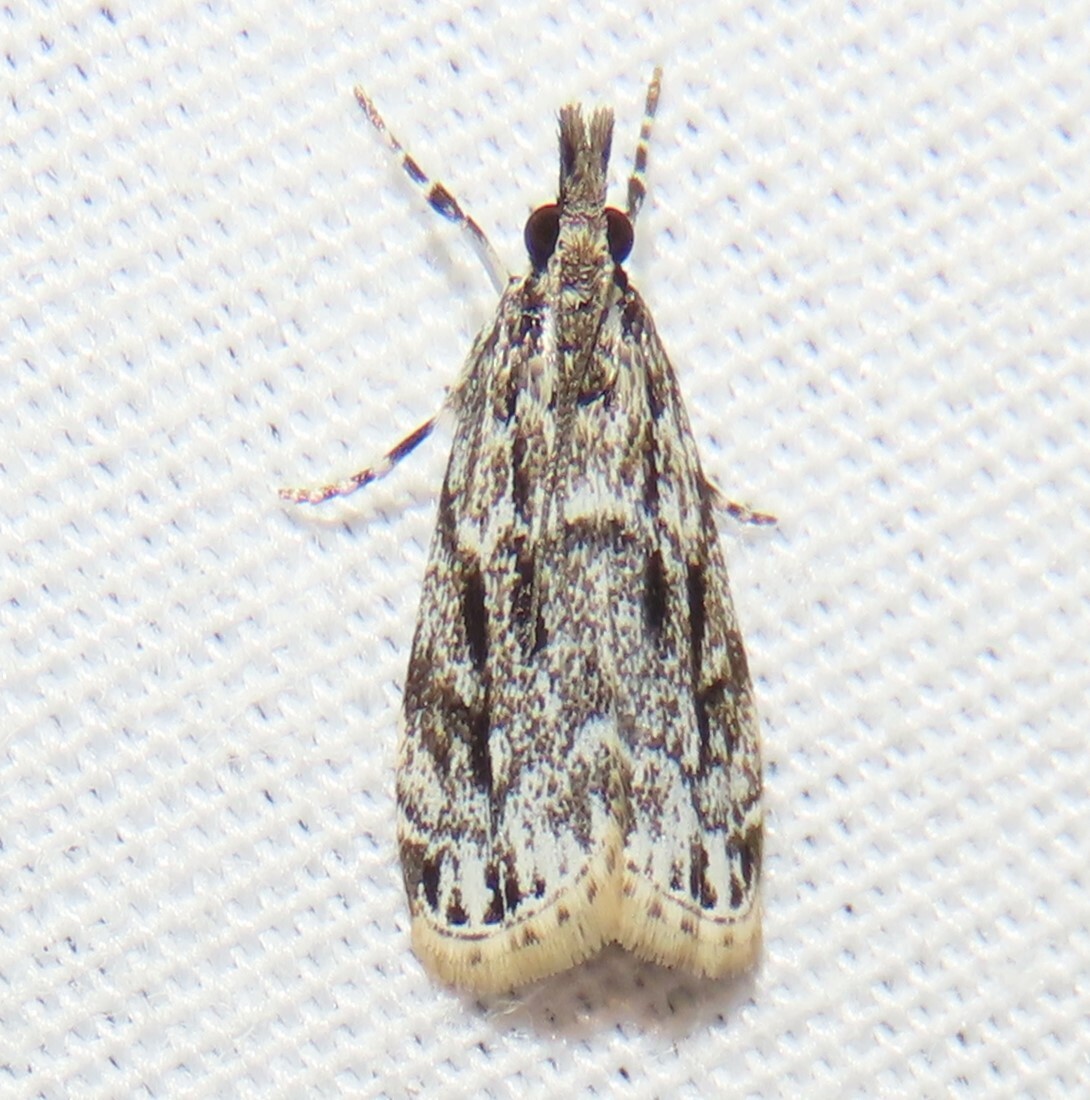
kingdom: Animalia
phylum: Arthropoda
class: Insecta
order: Lepidoptera
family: Crambidae
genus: Eudonia
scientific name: Eudonia strigalis
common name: Striped eudonia moth
